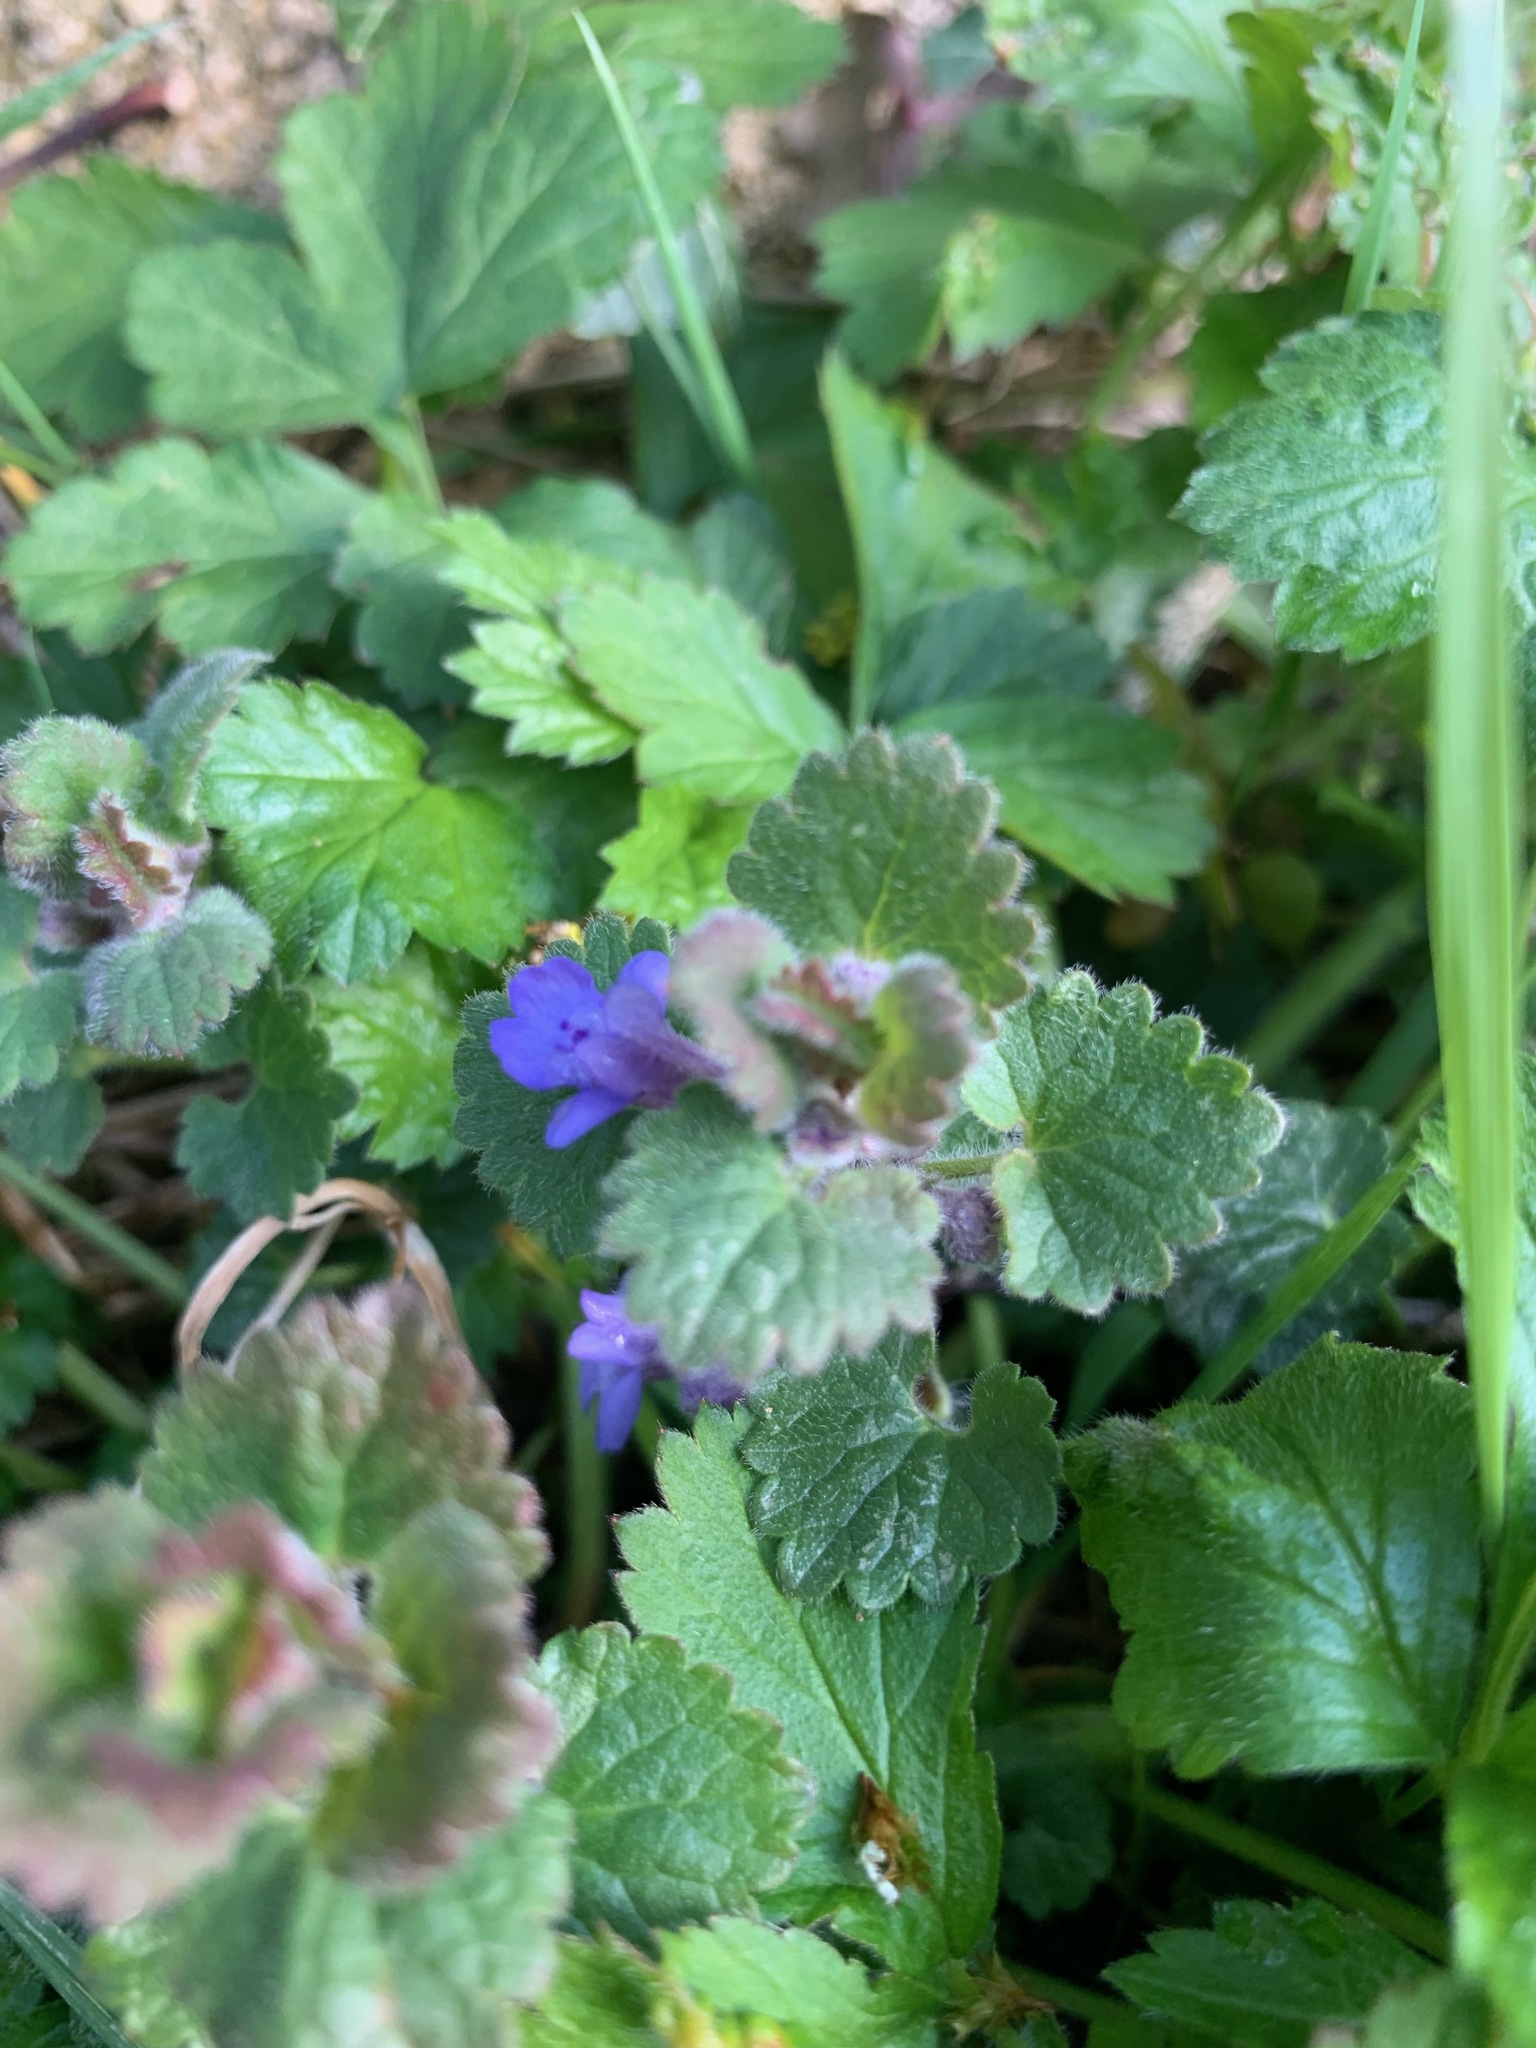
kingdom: Plantae
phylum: Tracheophyta
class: Magnoliopsida
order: Lamiales
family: Lamiaceae
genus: Glechoma
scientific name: Glechoma hederacea
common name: Ground ivy
